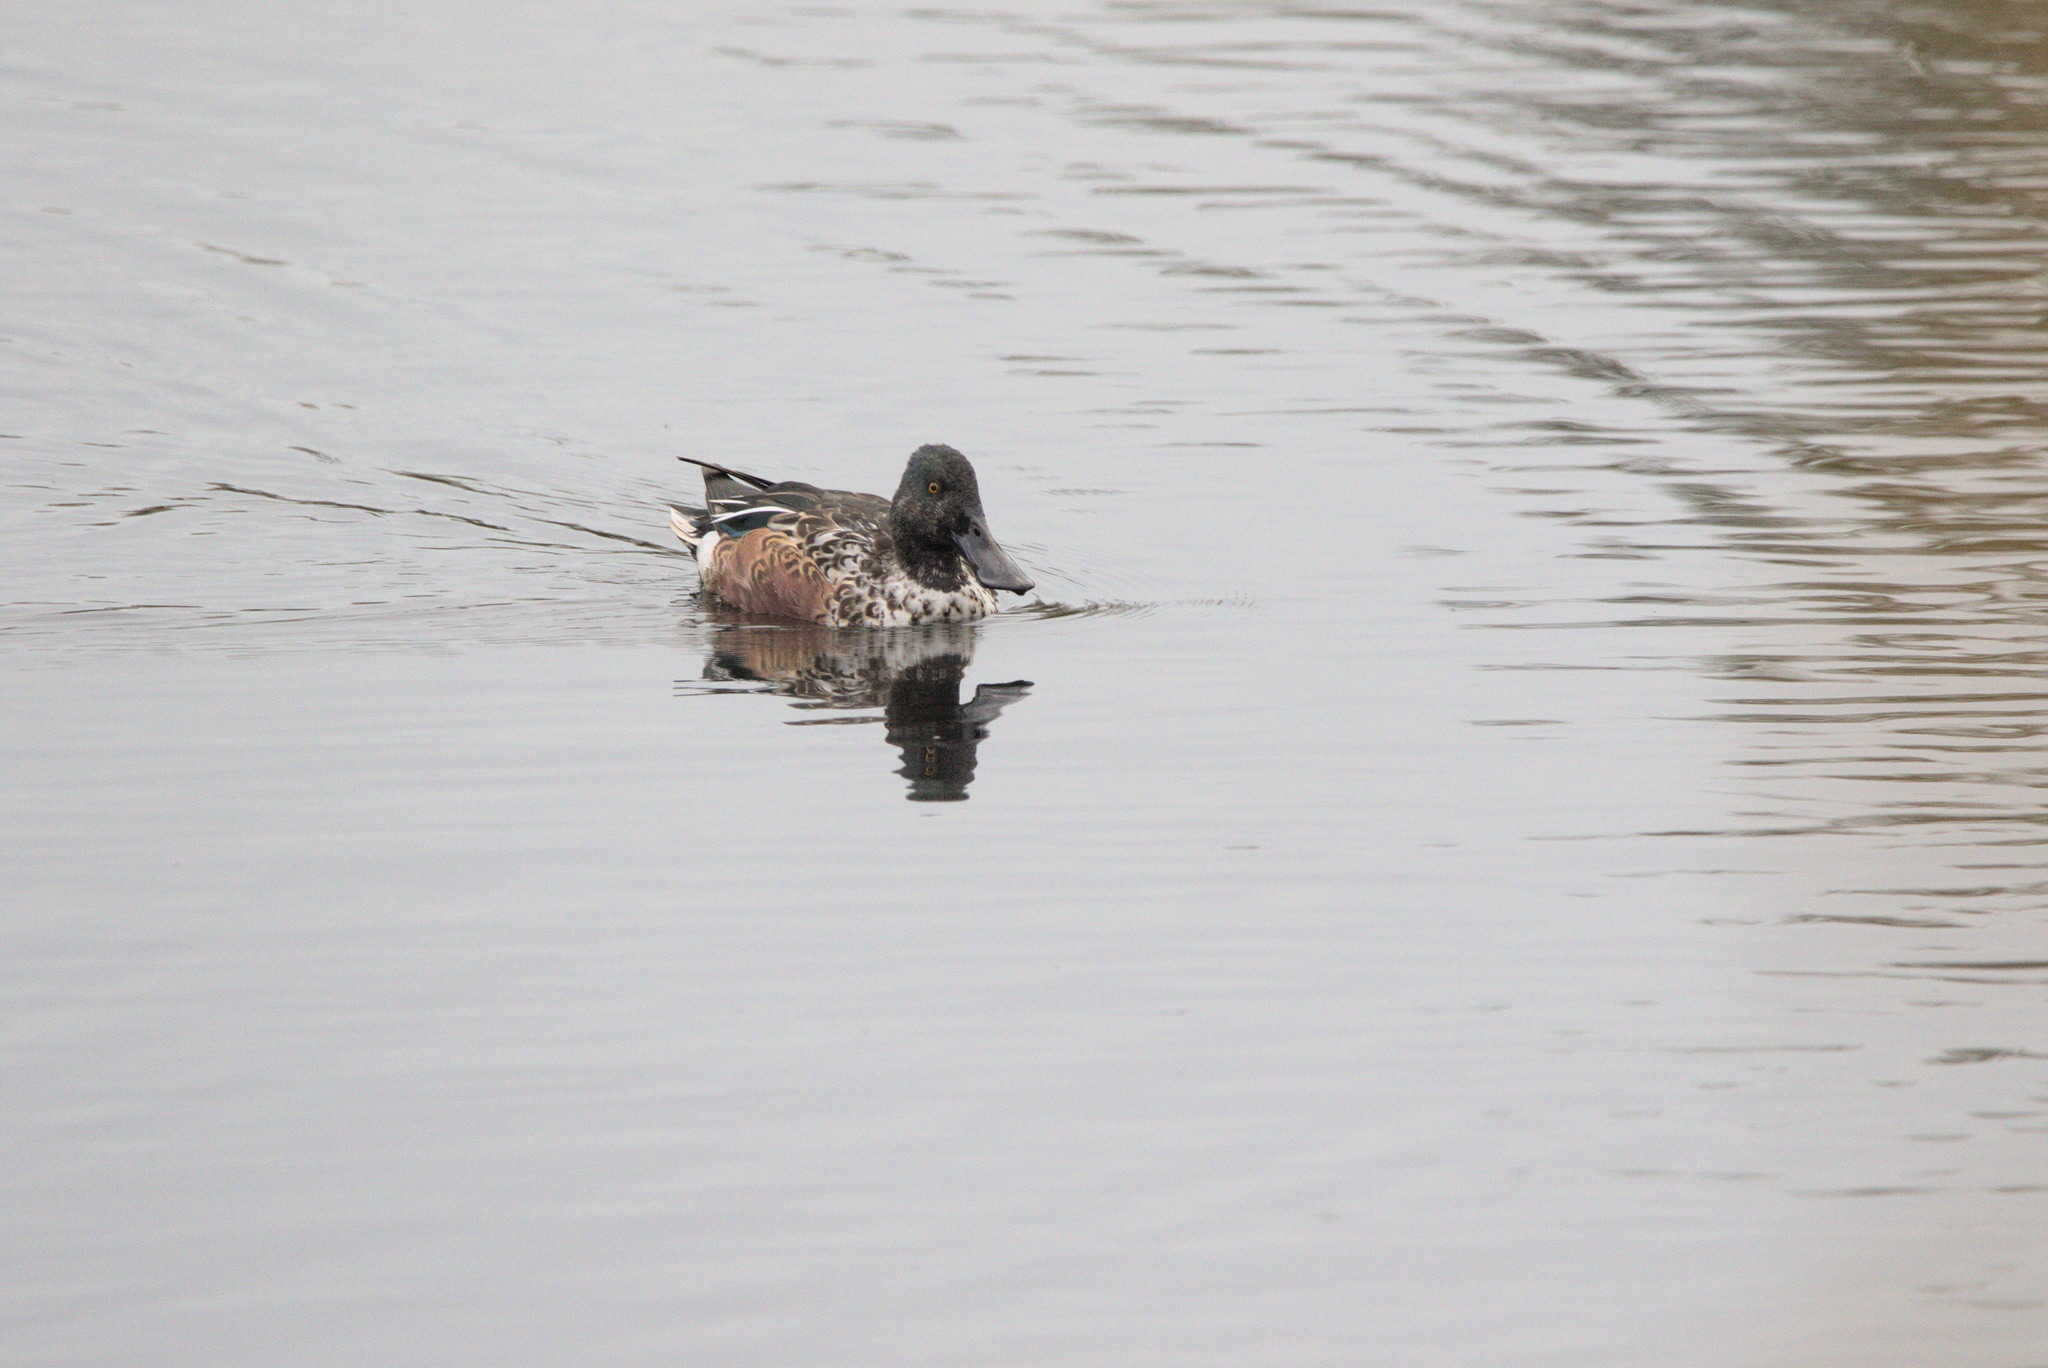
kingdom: Animalia
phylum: Chordata
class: Aves
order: Anseriformes
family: Anatidae
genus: Spatula
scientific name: Spatula clypeata
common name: Northern shoveler
